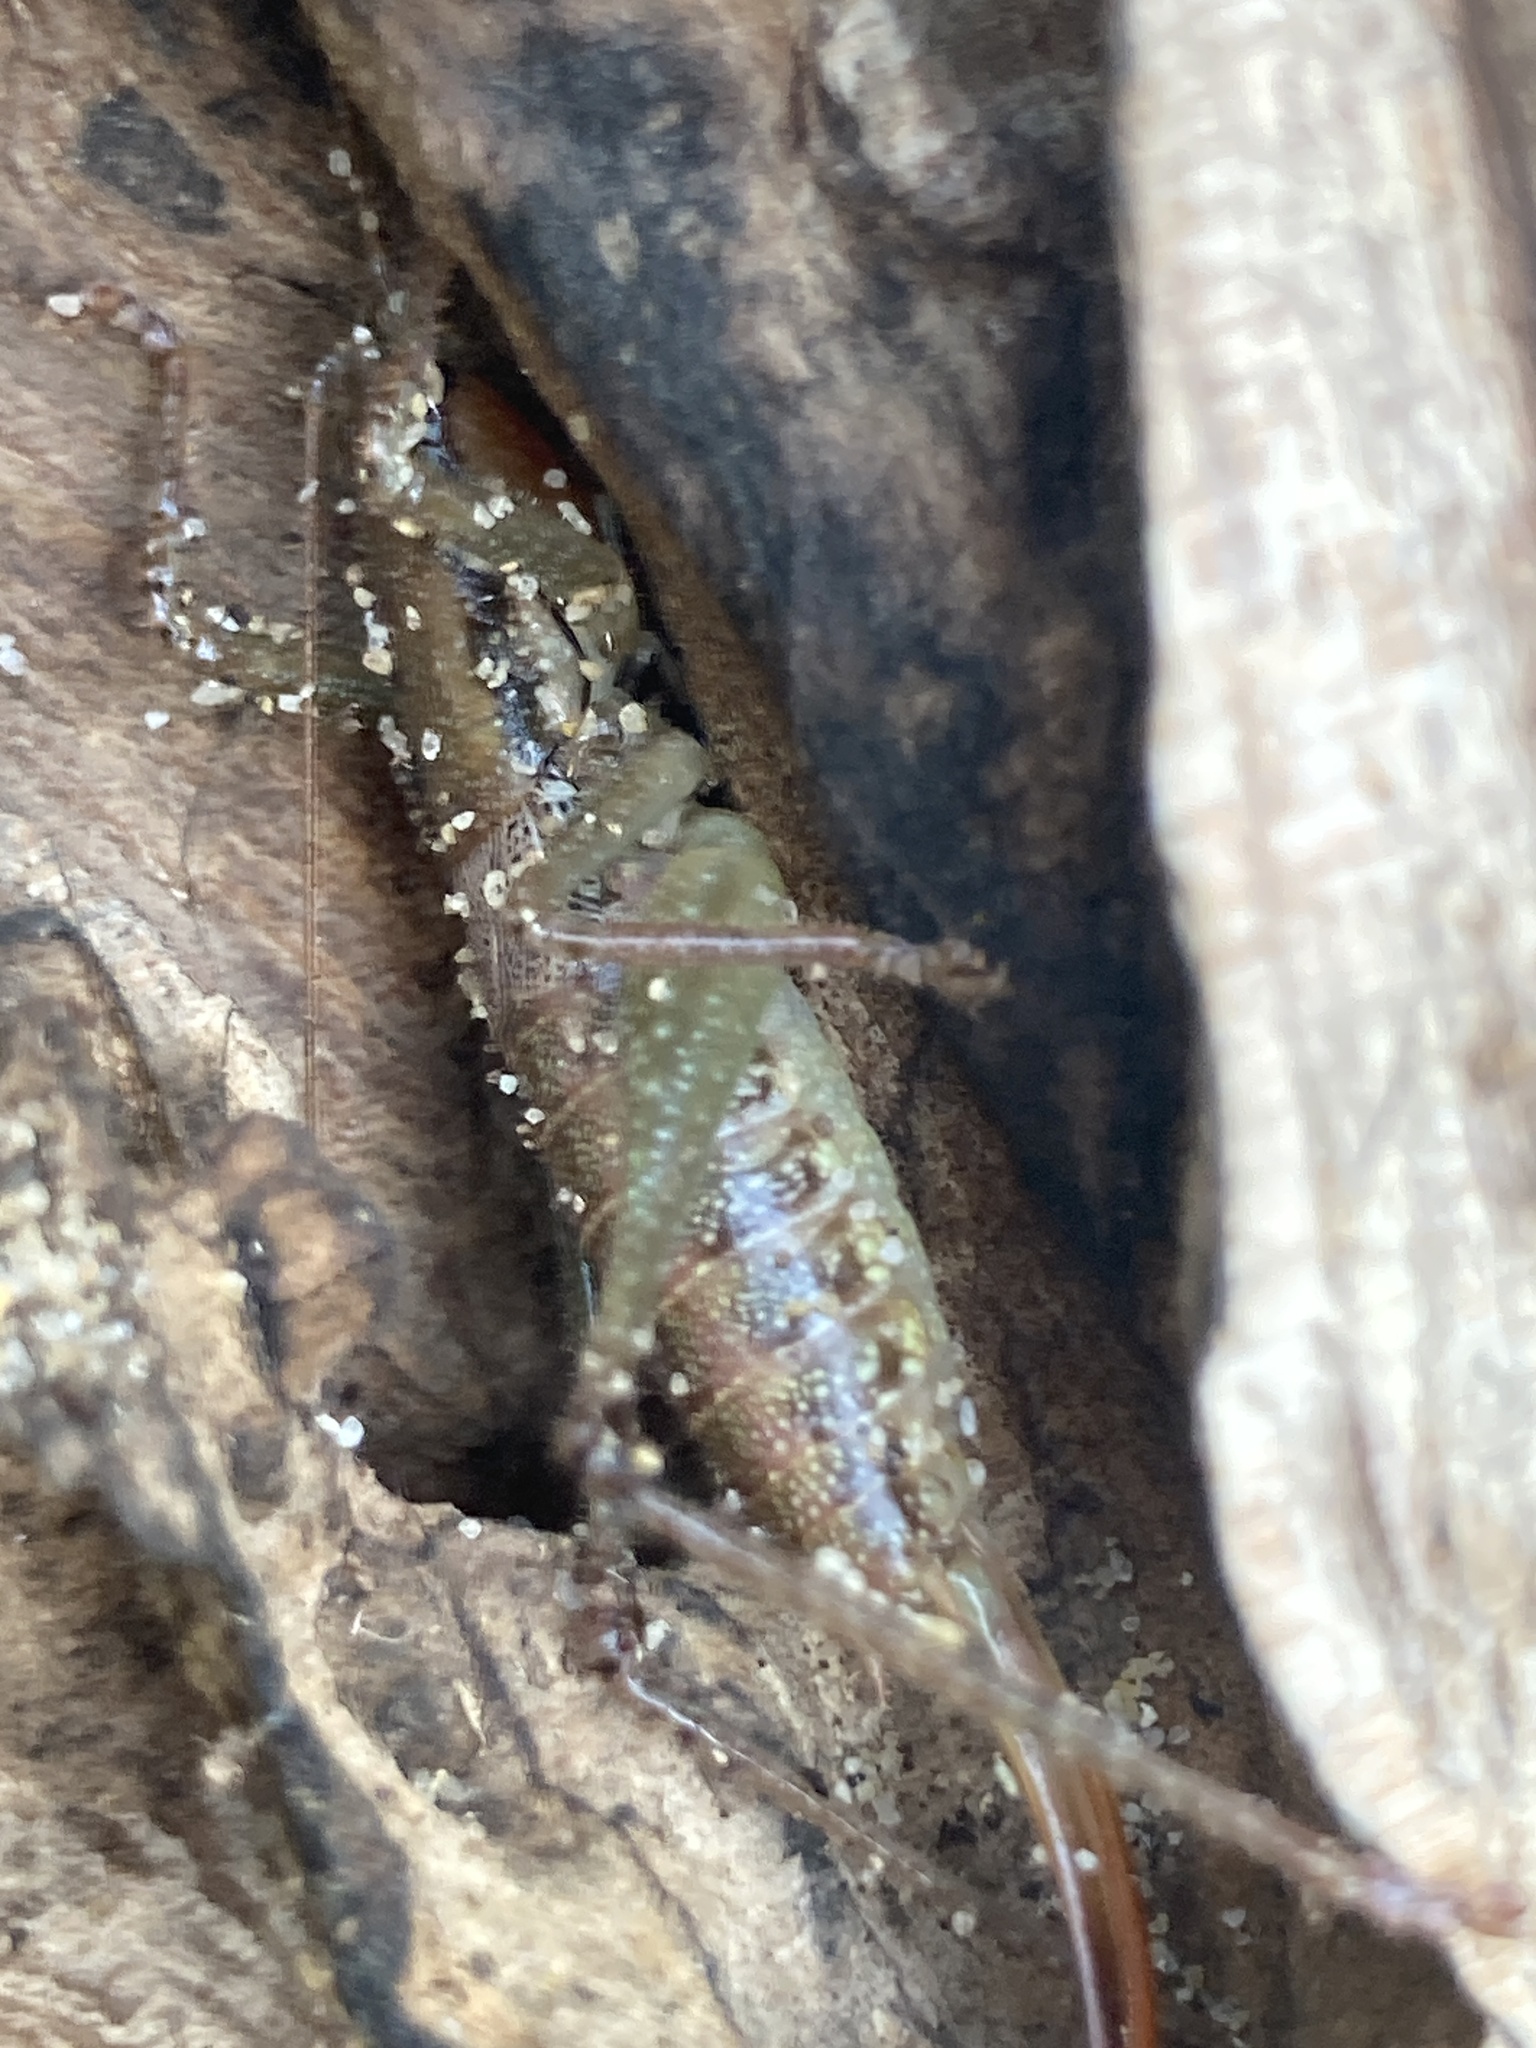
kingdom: Animalia
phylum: Arthropoda
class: Insecta
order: Orthoptera
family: Tettigoniidae
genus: Coptaspis
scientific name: Coptaspis brevipennis
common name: Sidney woodland katydid
